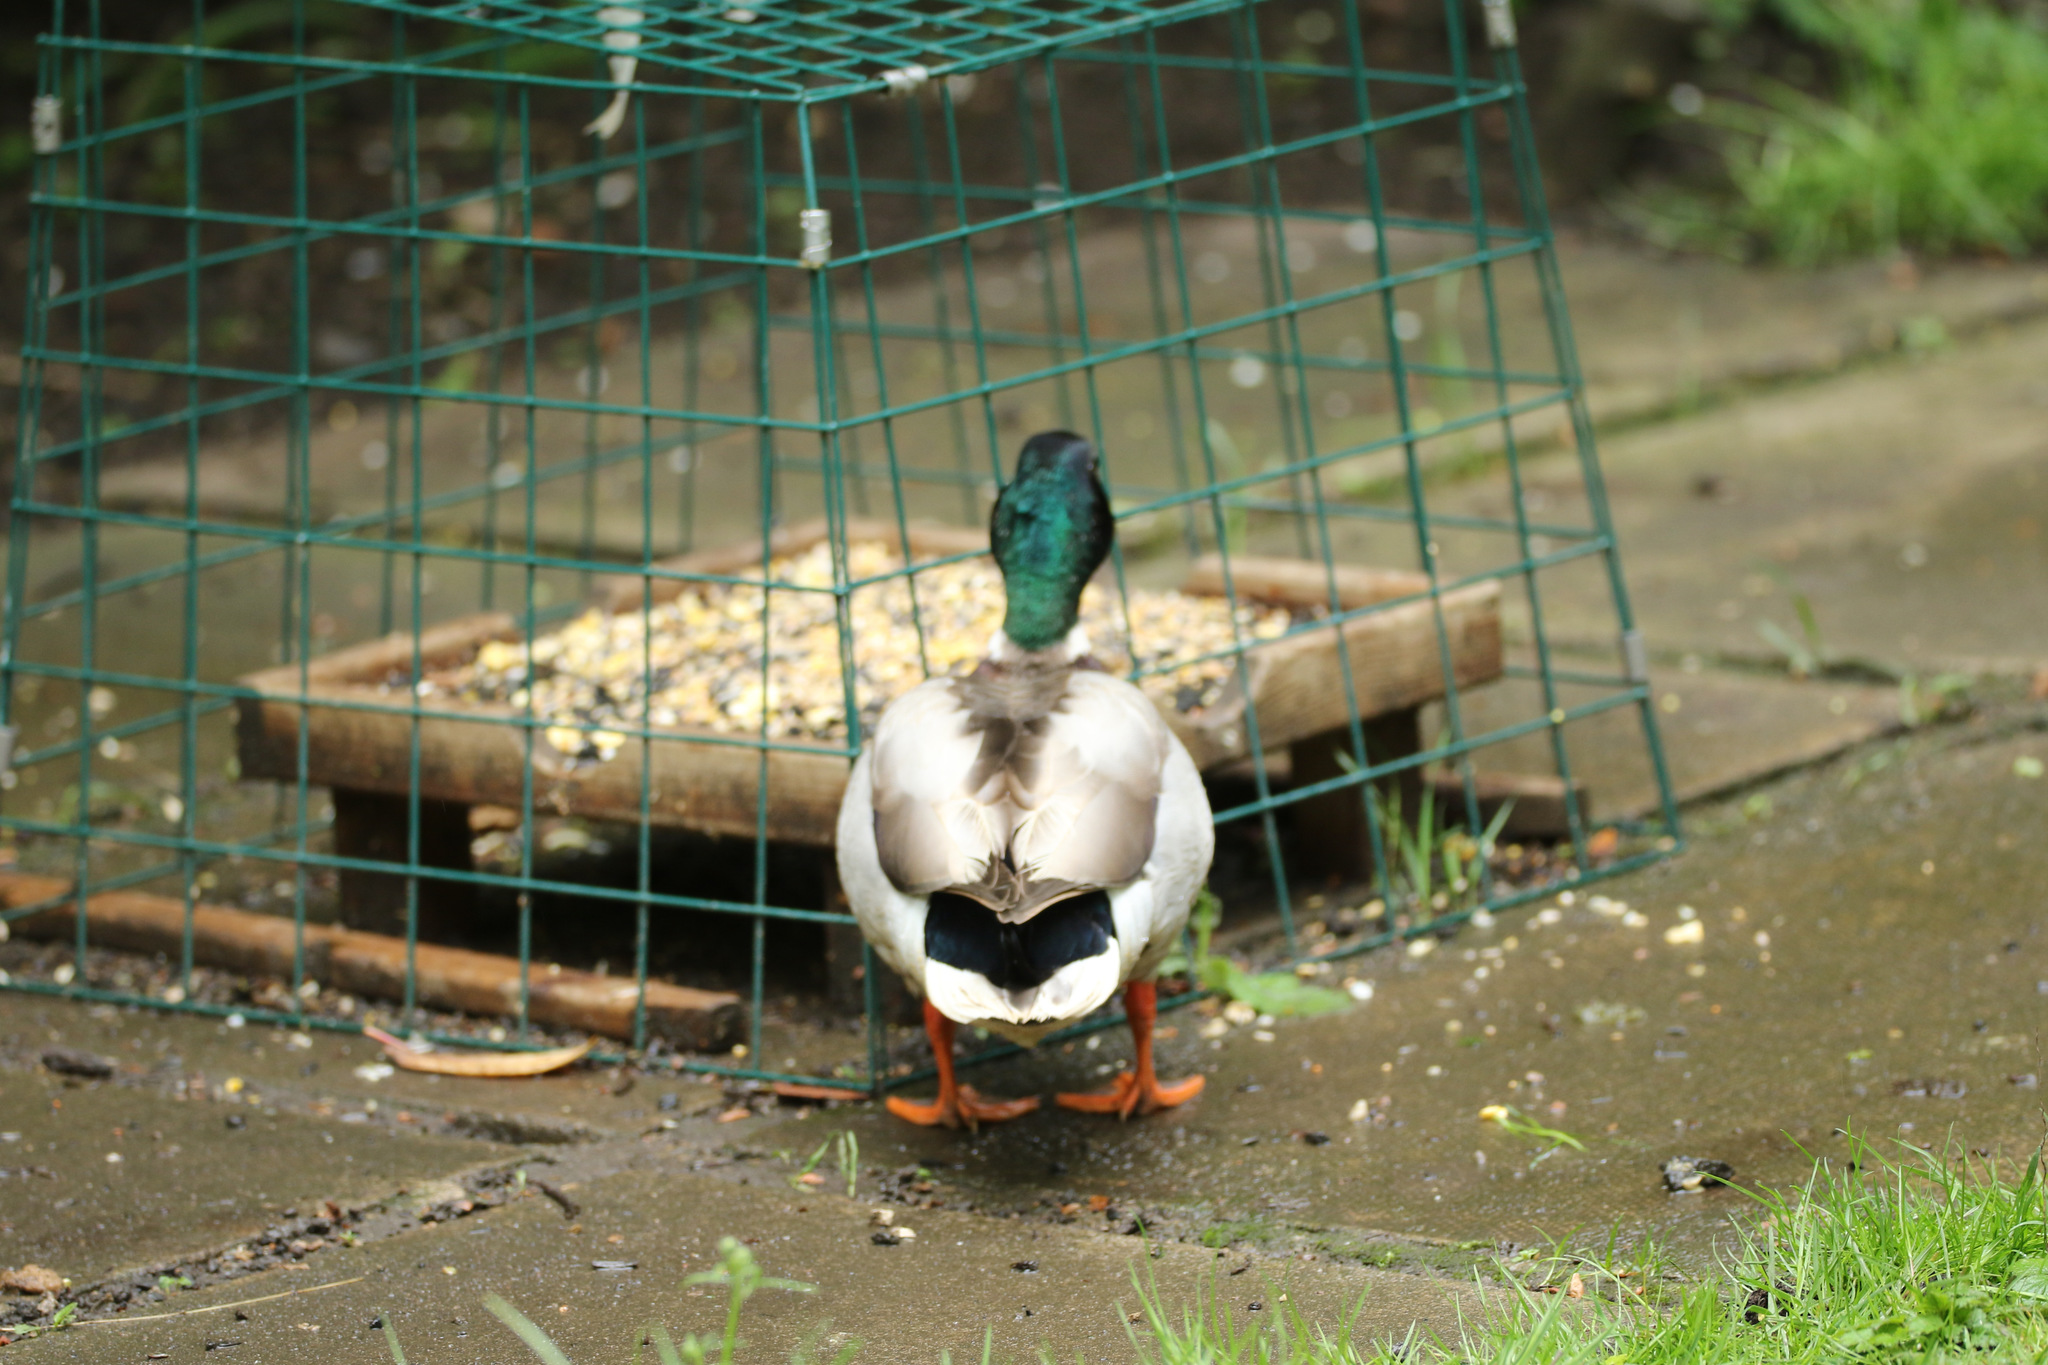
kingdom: Animalia
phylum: Chordata
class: Aves
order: Anseriformes
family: Anatidae
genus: Anas
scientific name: Anas platyrhynchos
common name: Mallard
